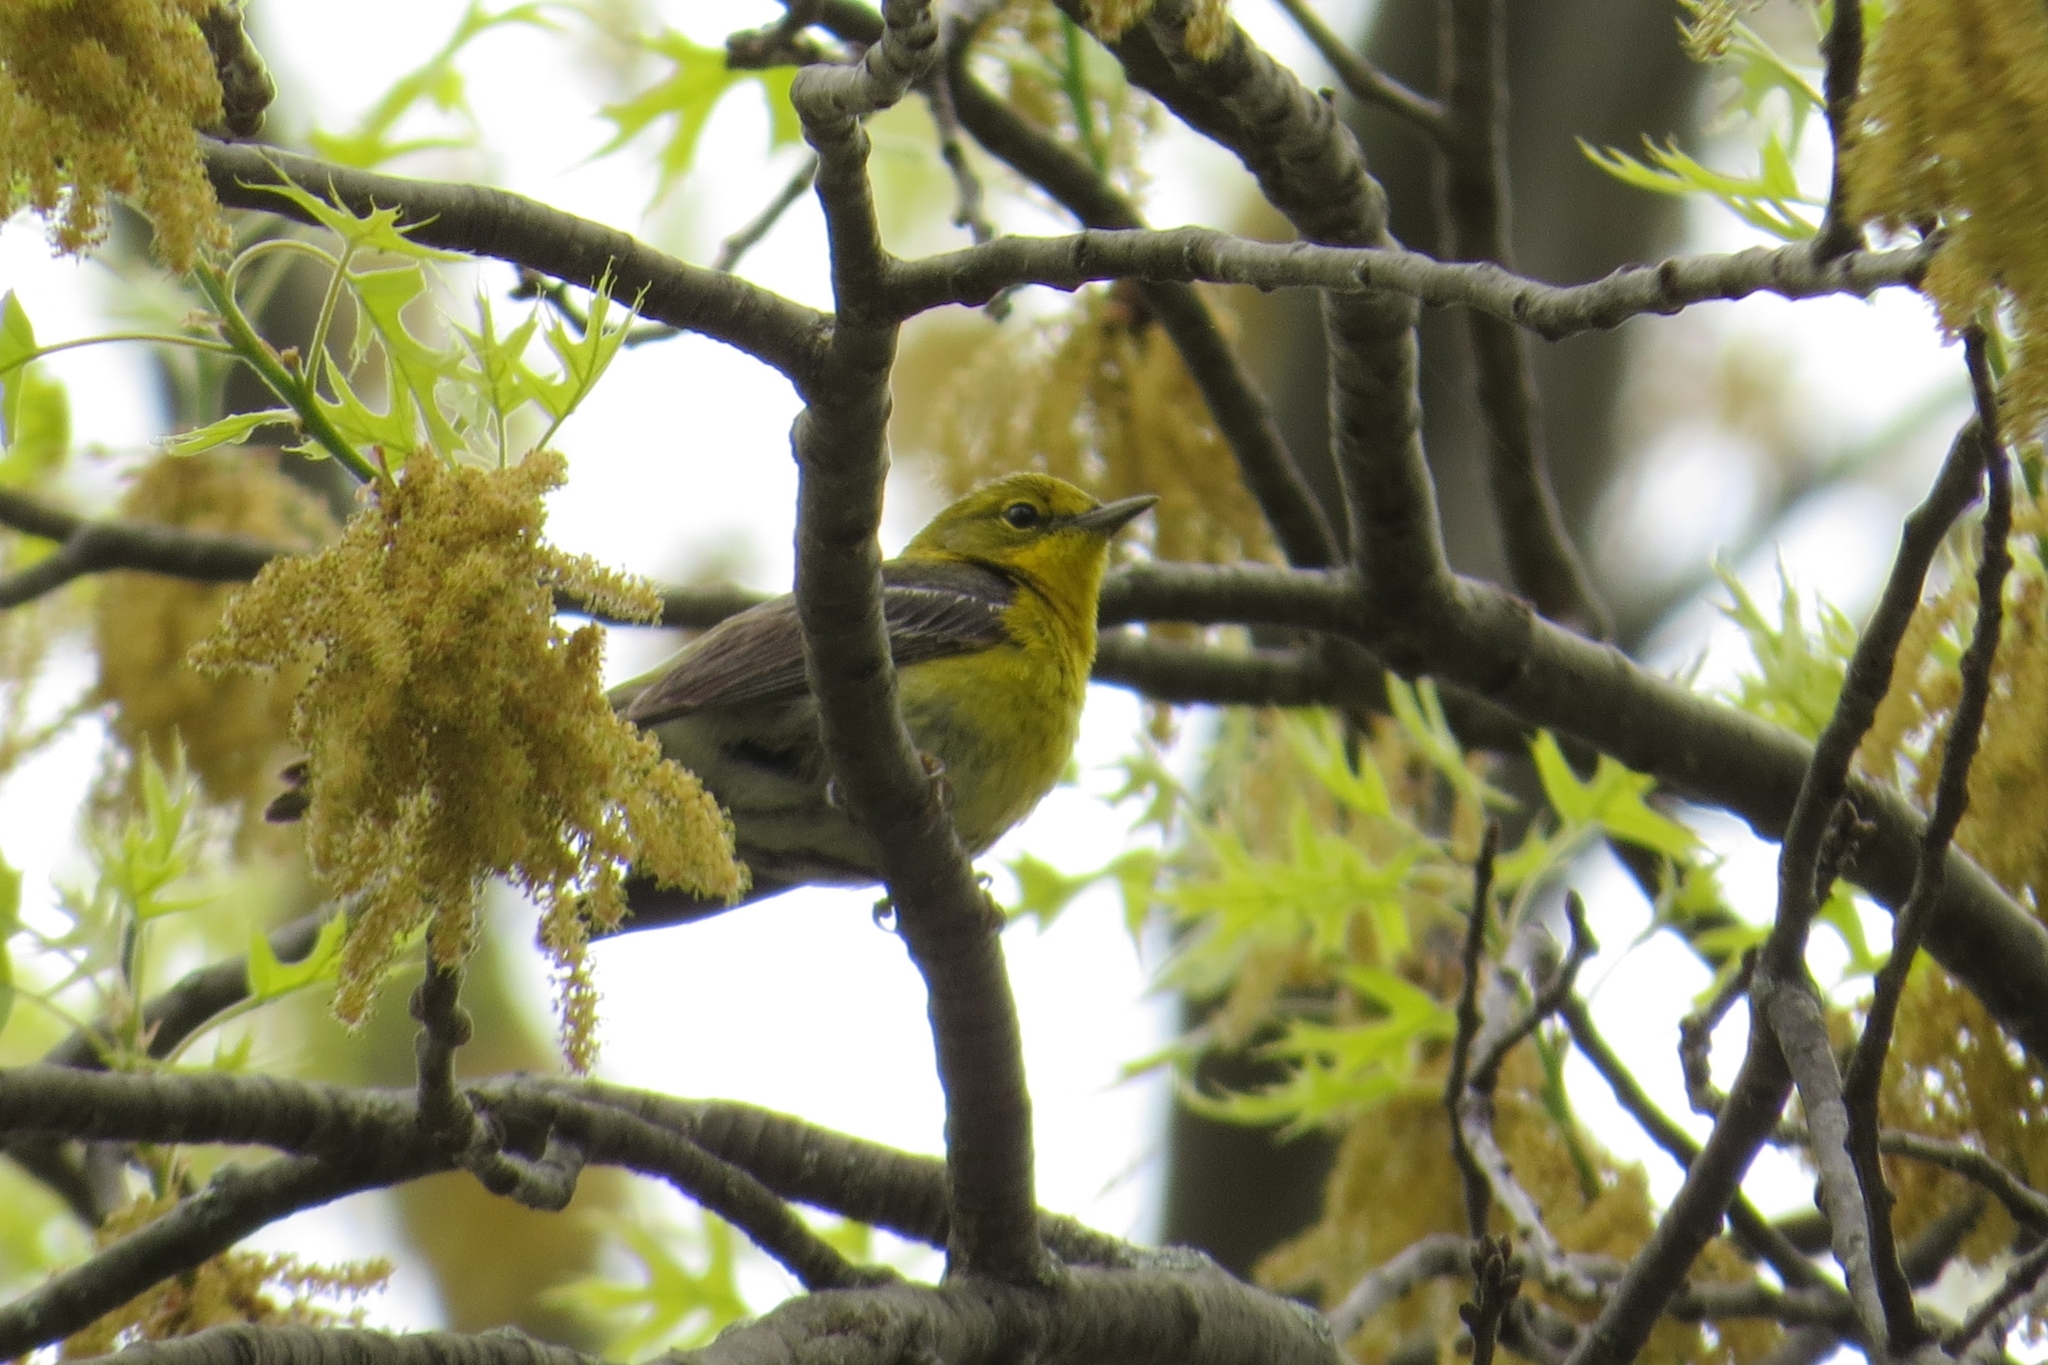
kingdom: Animalia
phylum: Chordata
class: Aves
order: Passeriformes
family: Parulidae
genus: Setophaga
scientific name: Setophaga pinus
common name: Pine warbler
